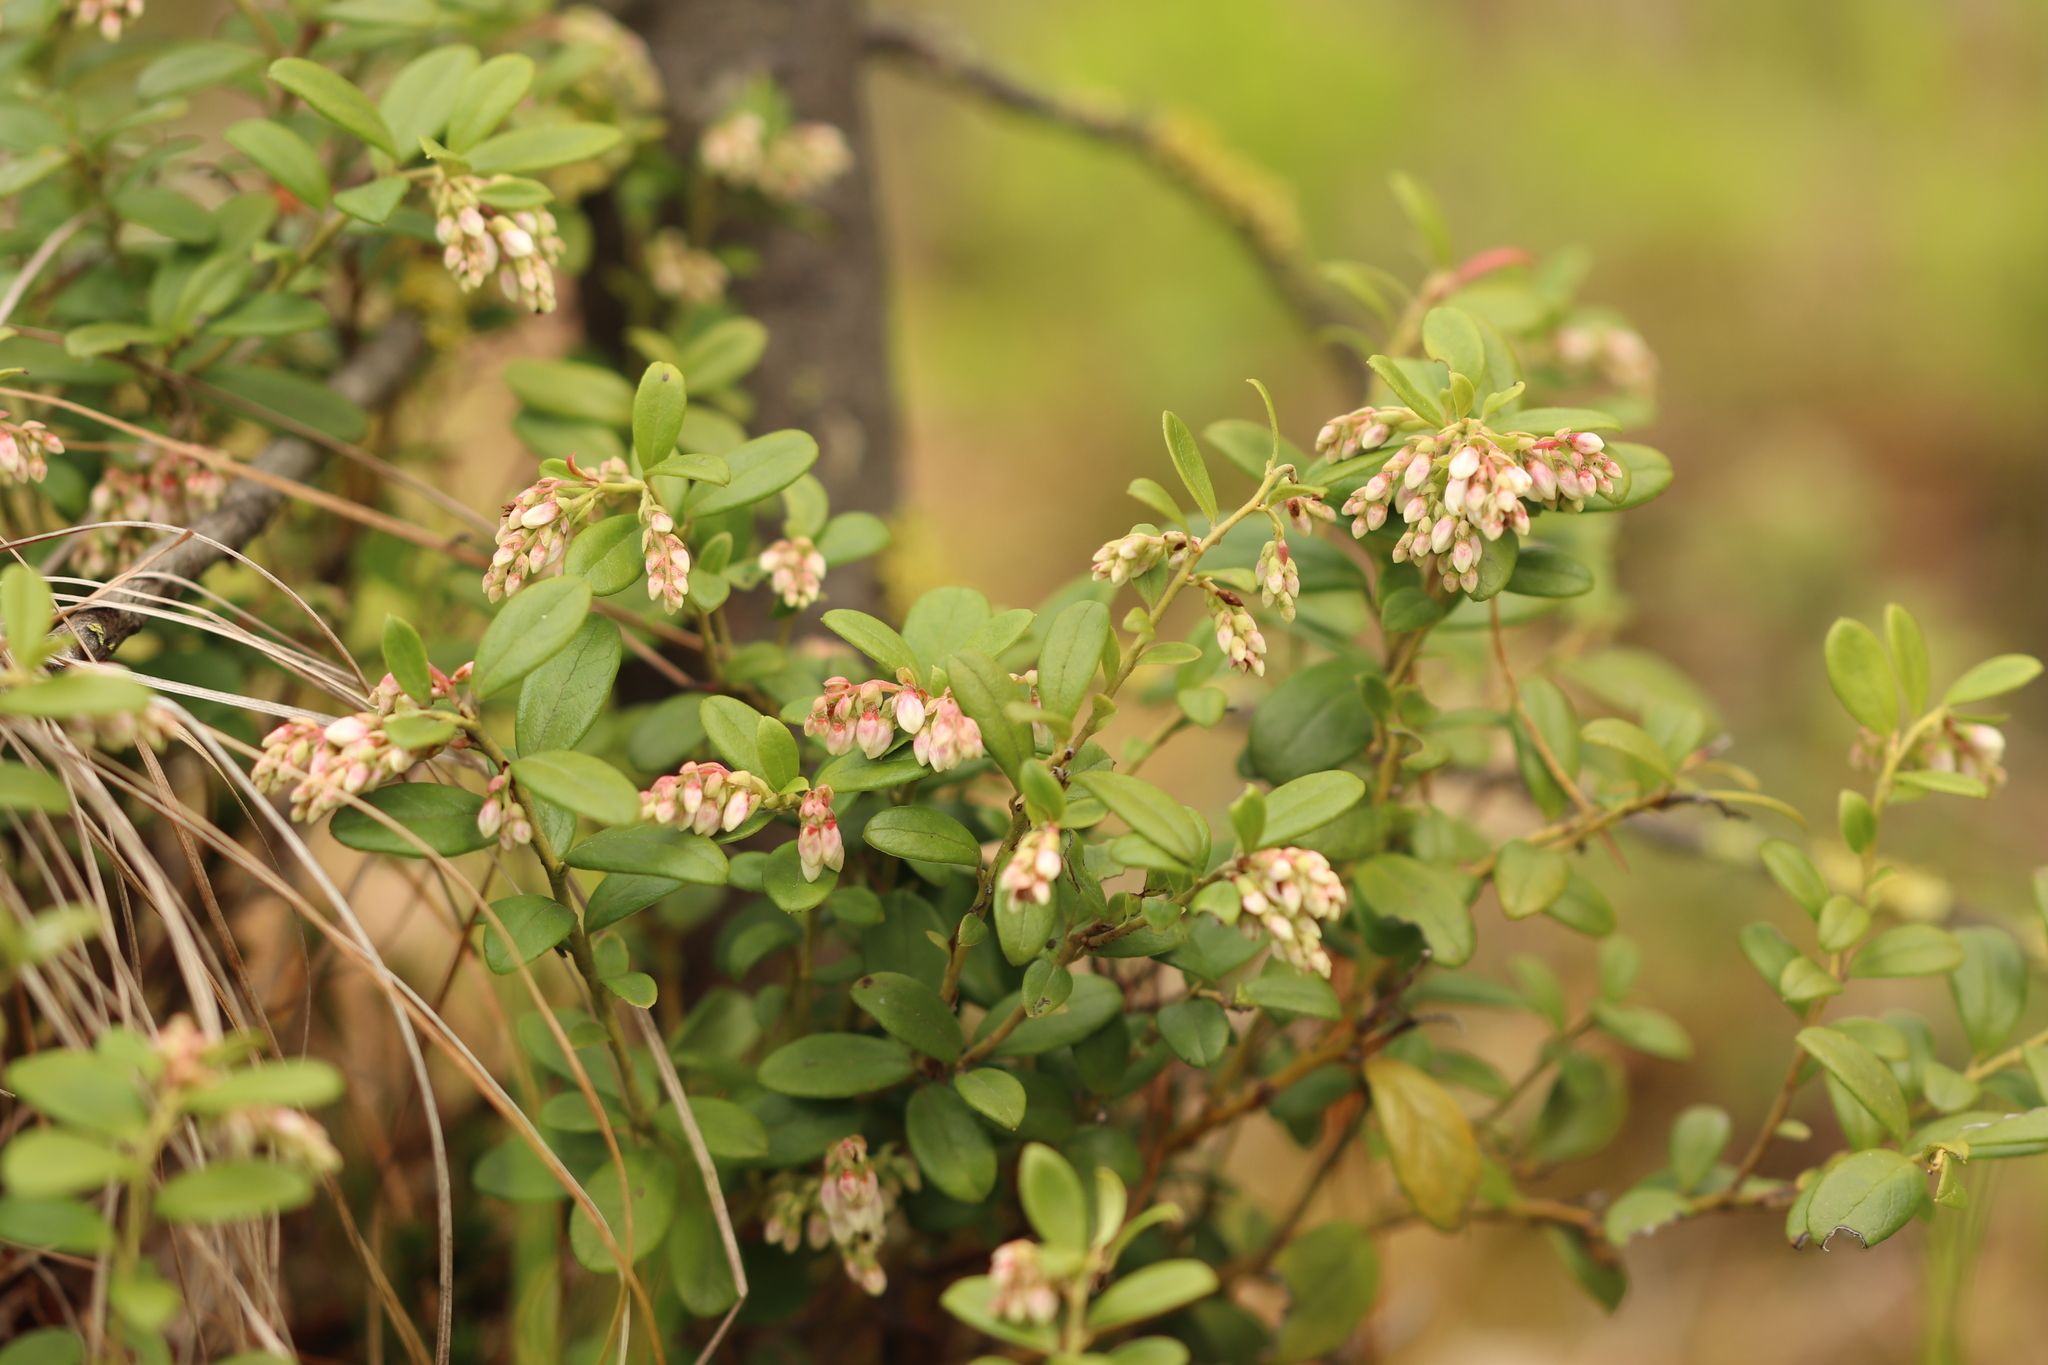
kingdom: Plantae
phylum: Tracheophyta
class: Magnoliopsida
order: Ericales
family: Ericaceae
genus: Vaccinium
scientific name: Vaccinium vitis-idaea
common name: Cowberry
